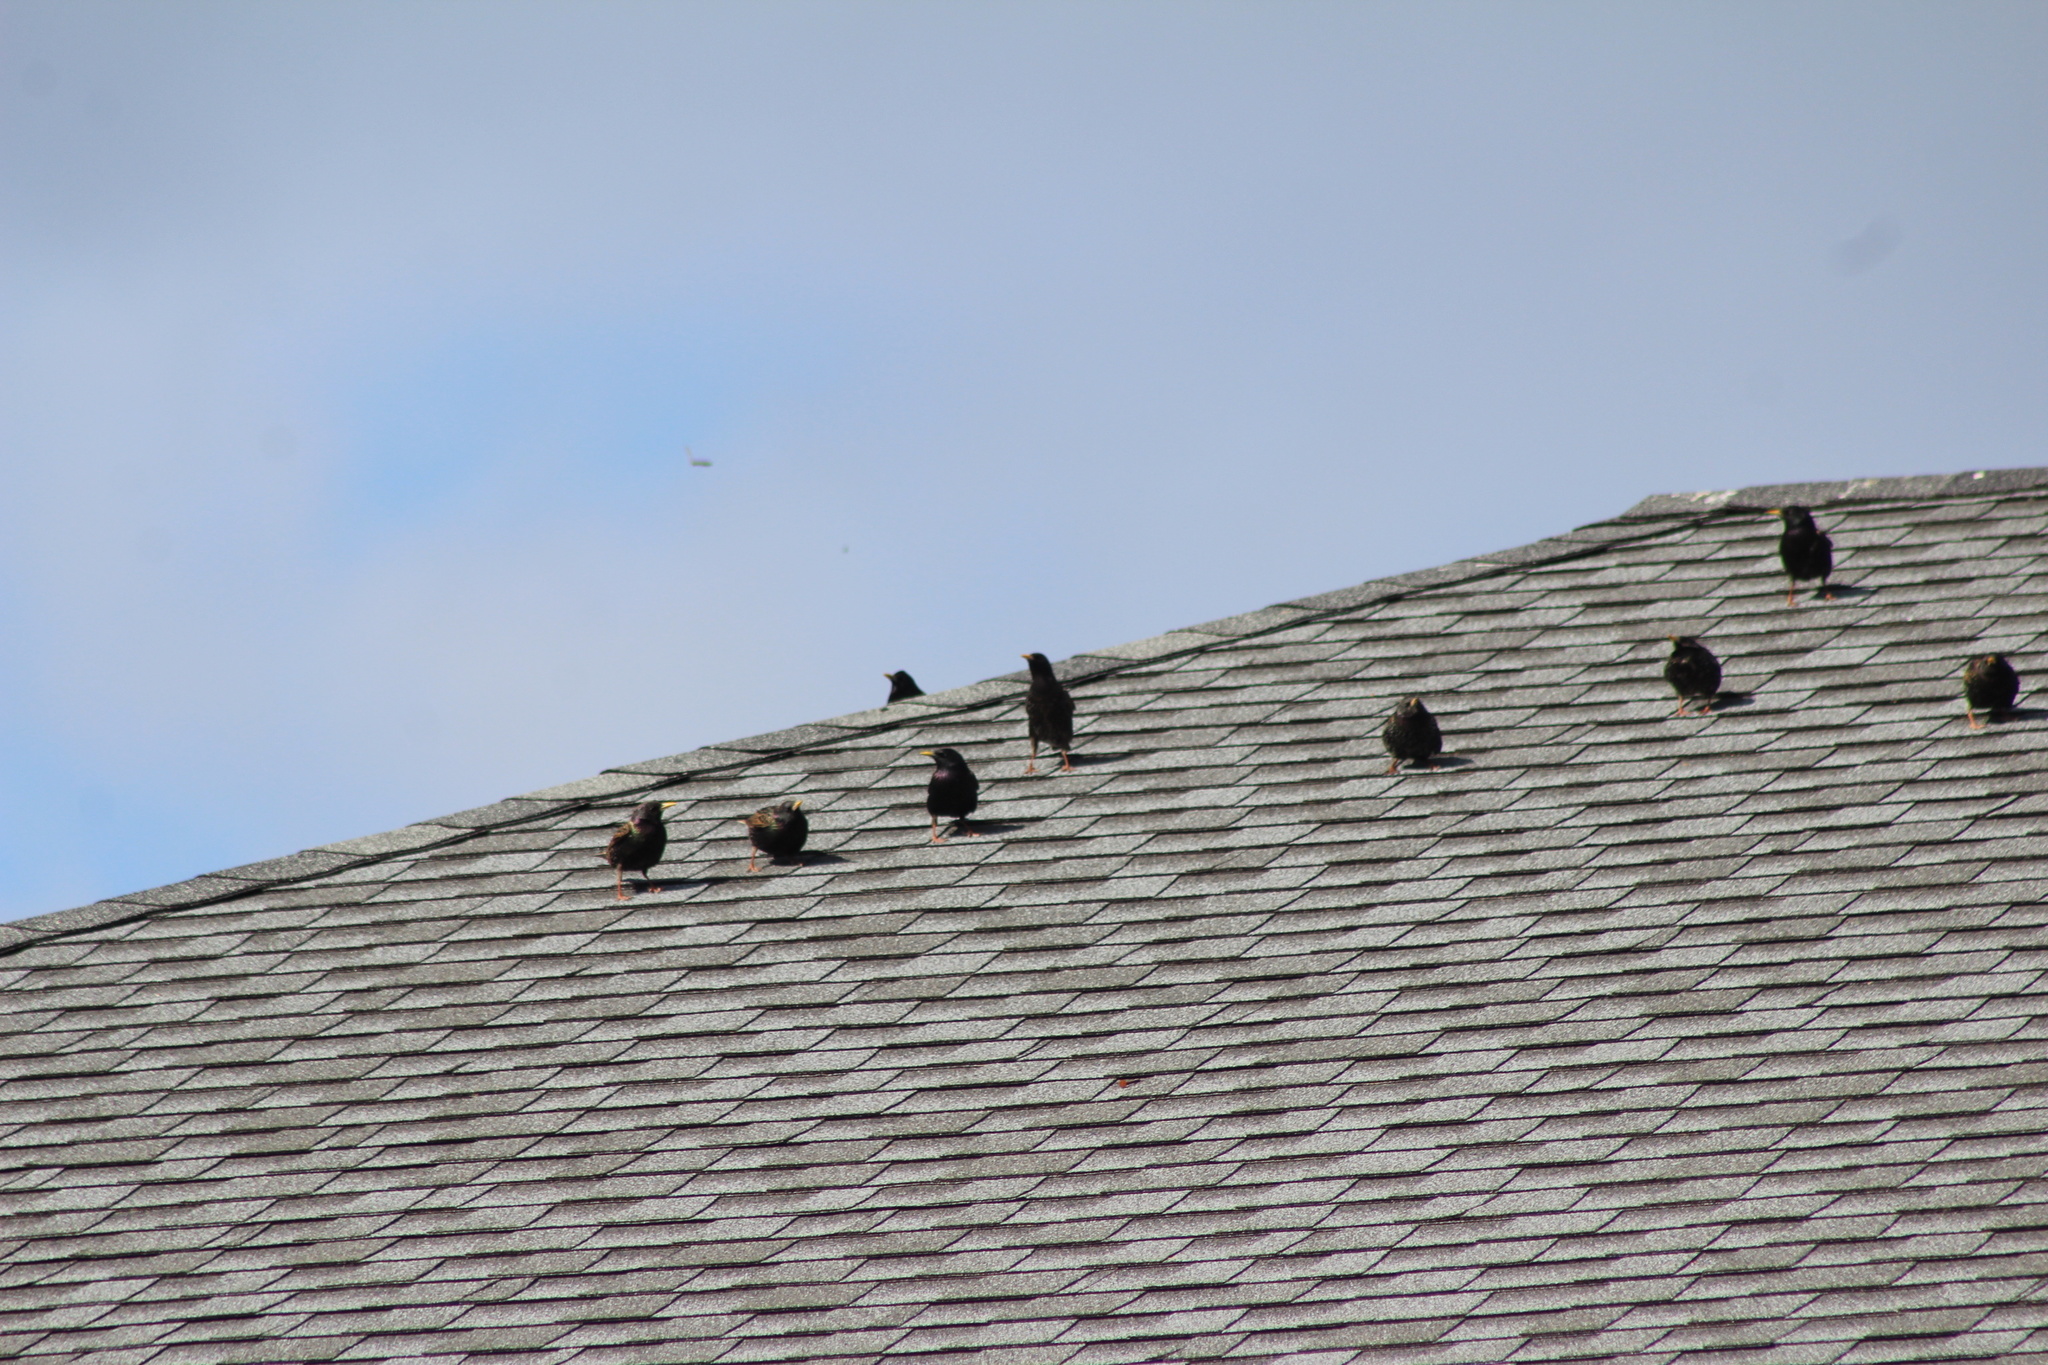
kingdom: Animalia
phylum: Chordata
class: Aves
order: Passeriformes
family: Sturnidae
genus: Sturnus
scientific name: Sturnus vulgaris
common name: Common starling
